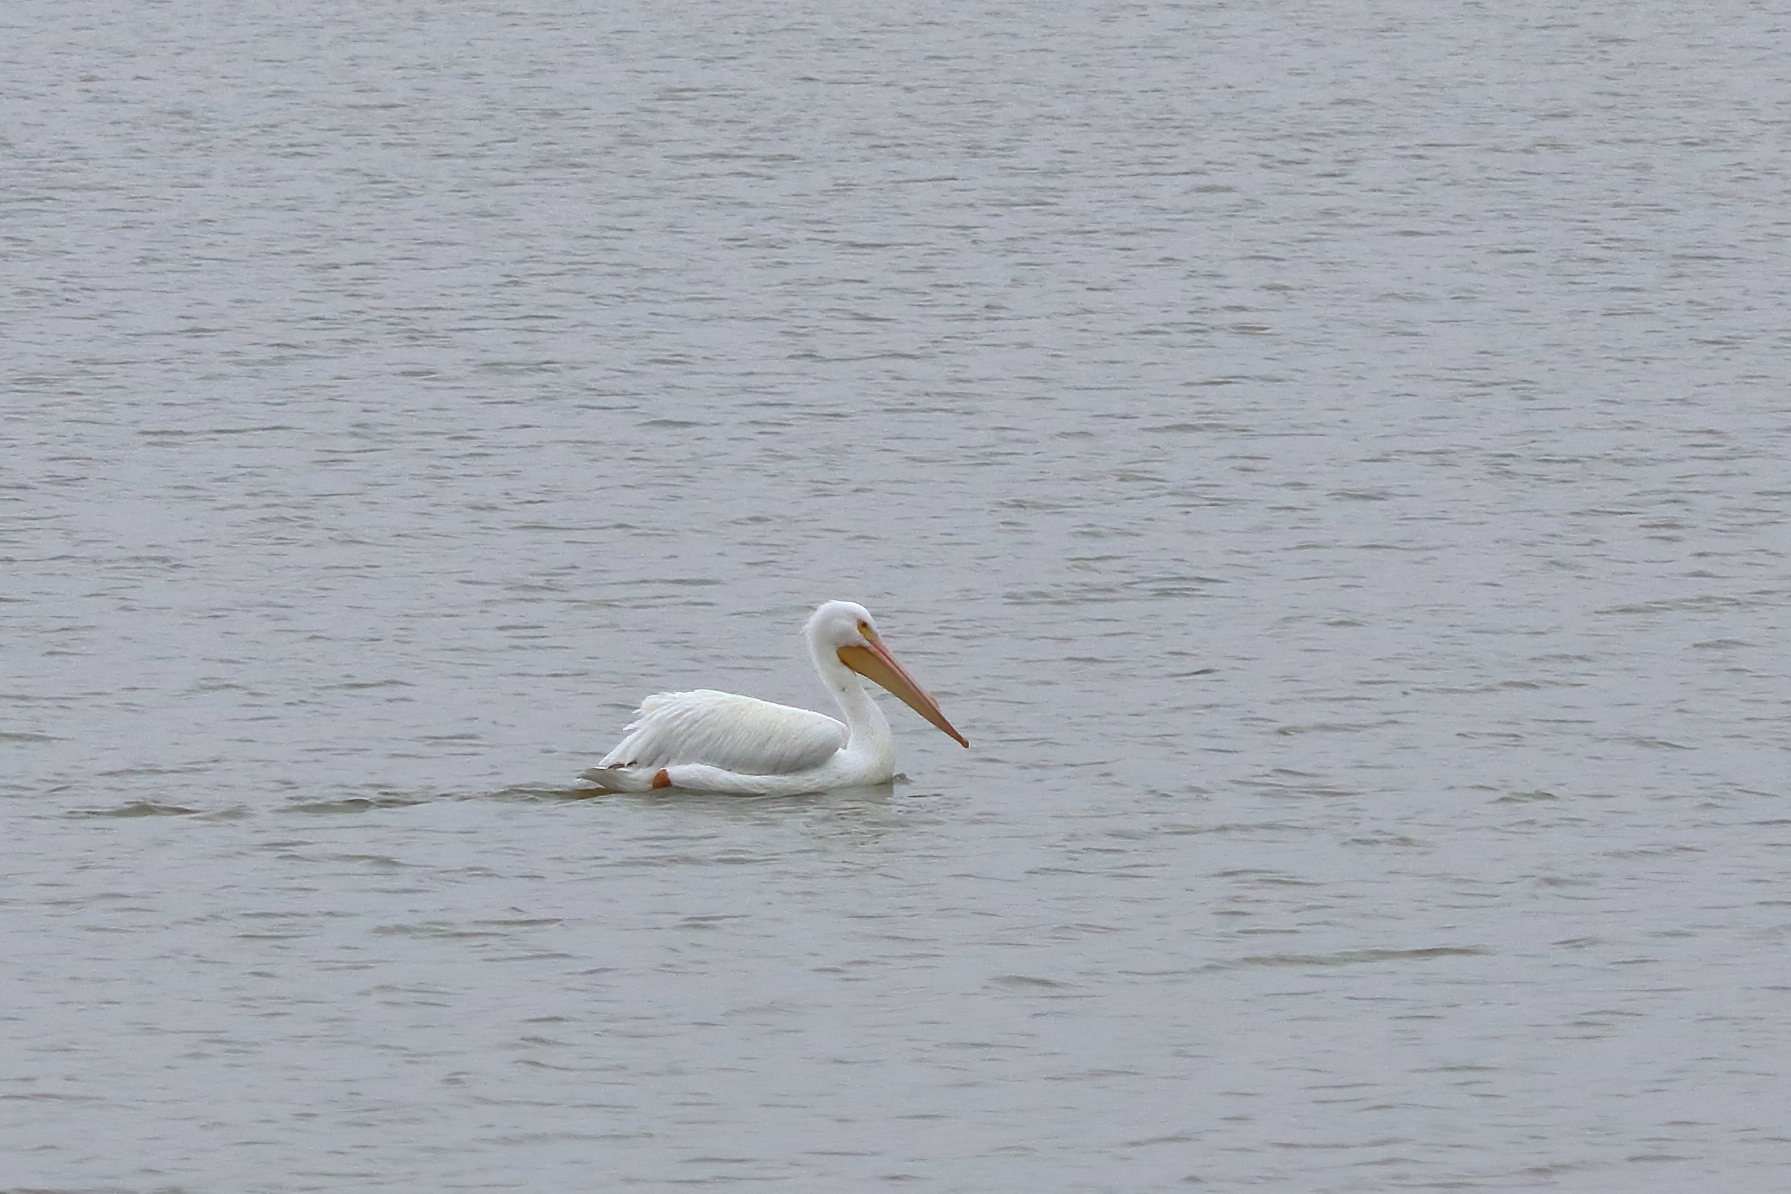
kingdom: Animalia
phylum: Chordata
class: Aves
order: Pelecaniformes
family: Pelecanidae
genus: Pelecanus
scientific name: Pelecanus erythrorhynchos
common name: American white pelican
